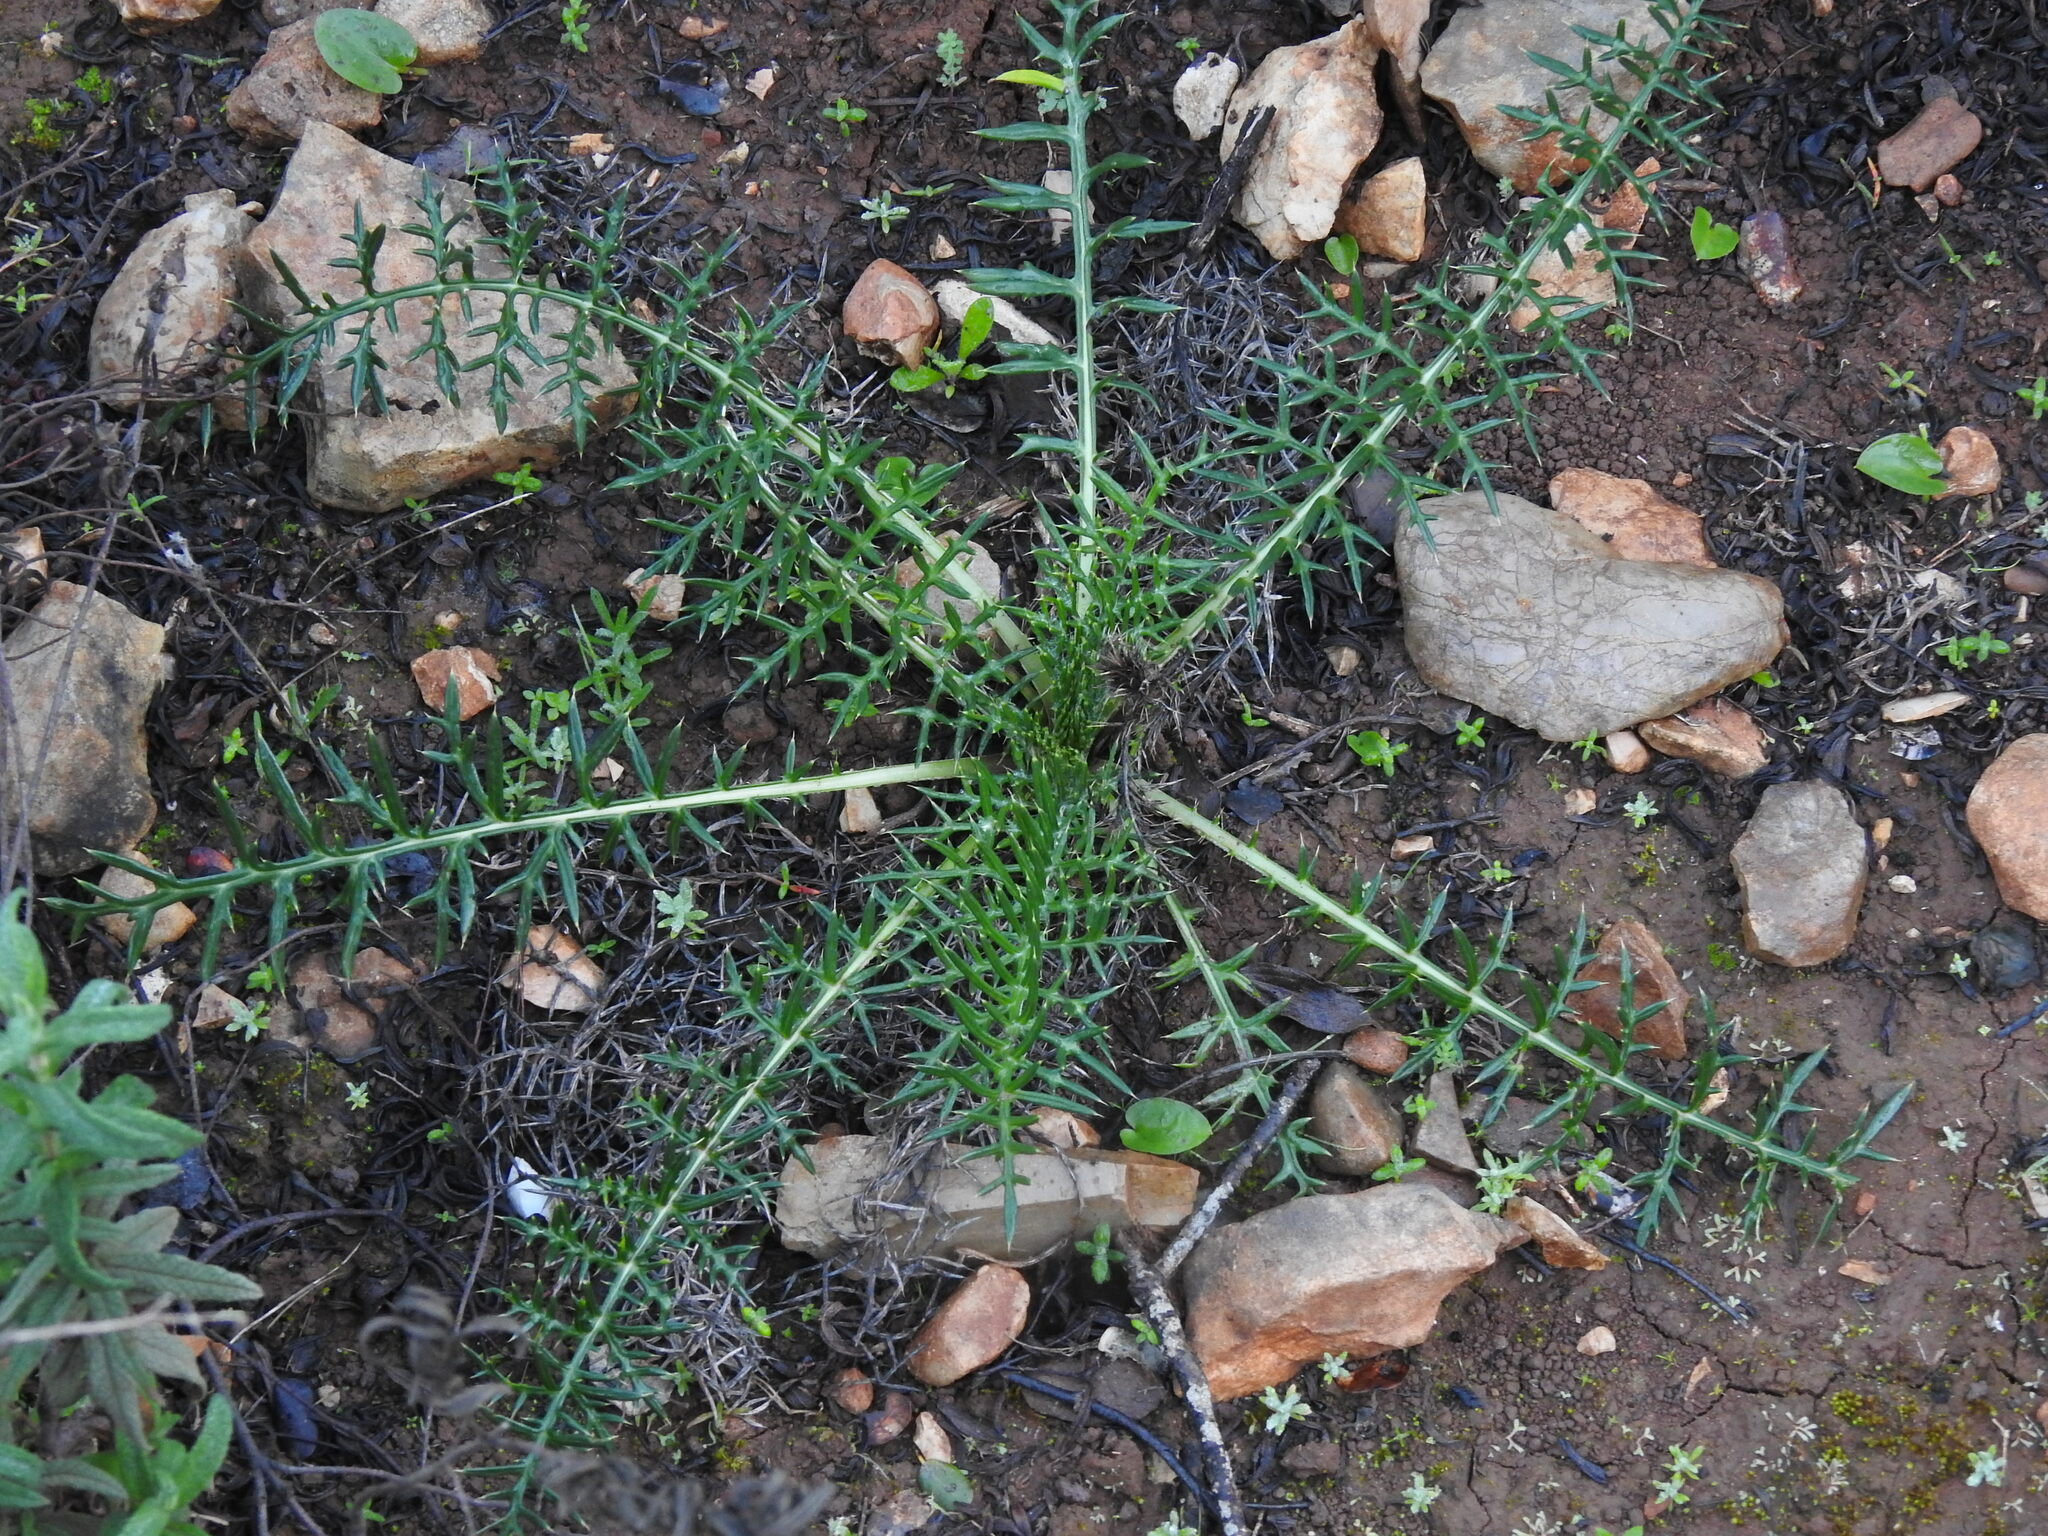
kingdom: Plantae
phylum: Tracheophyta
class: Magnoliopsida
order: Asterales
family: Asteraceae
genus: Cynara
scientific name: Cynara humilis
